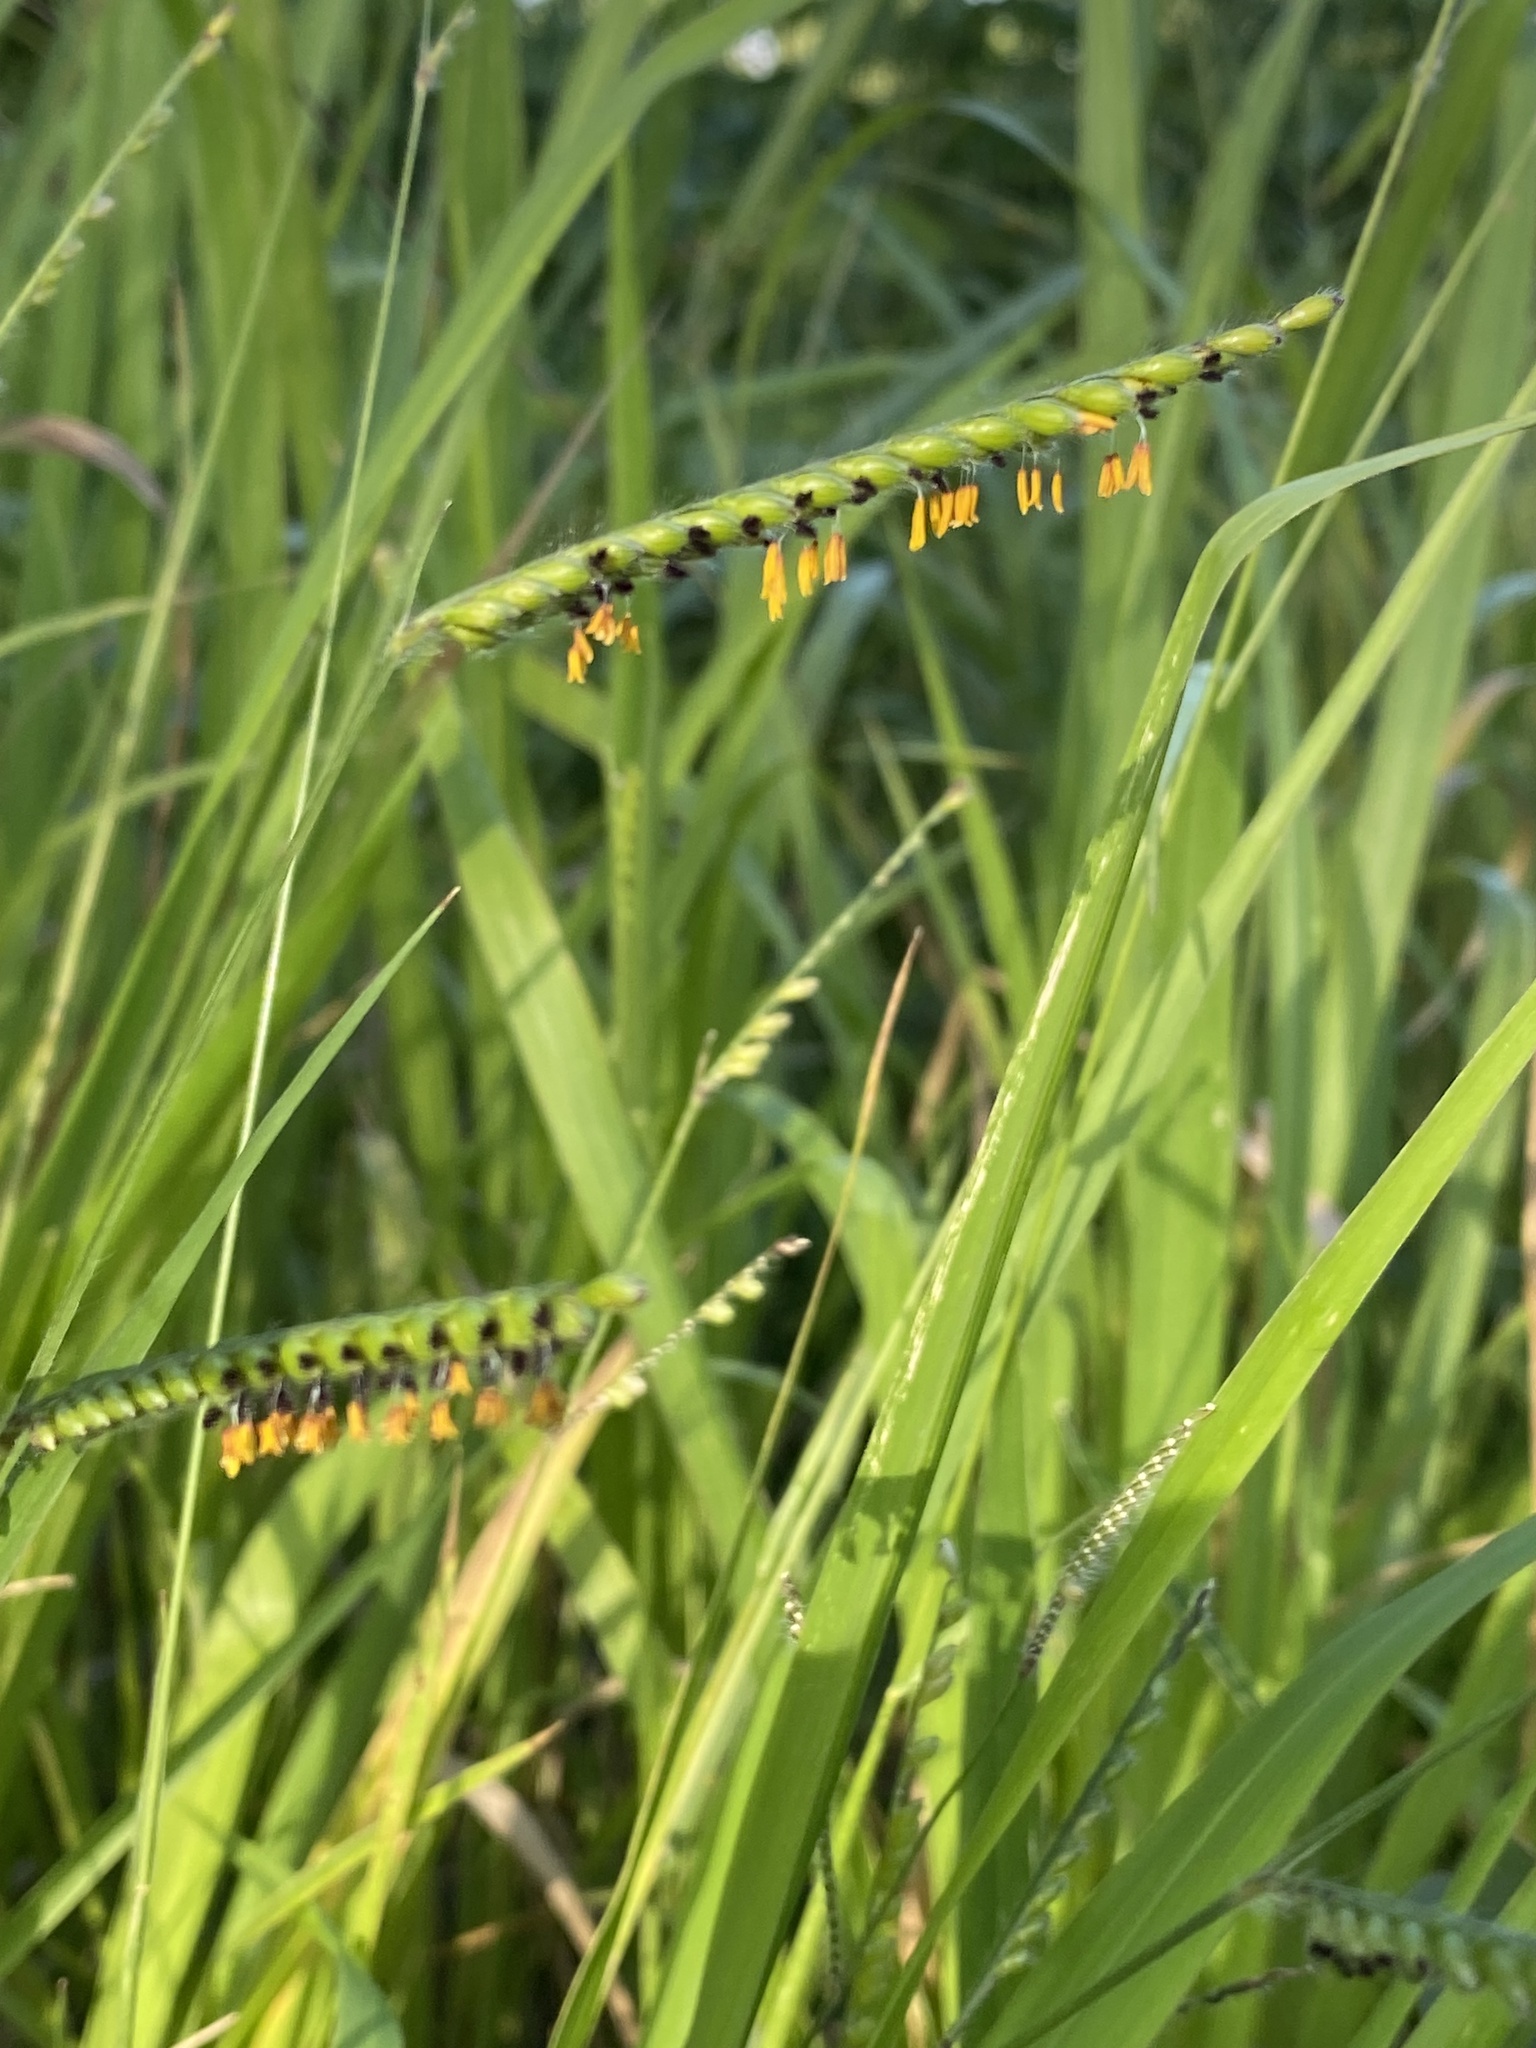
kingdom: Plantae
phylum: Tracheophyta
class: Liliopsida
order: Poales
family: Poaceae
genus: Urochloa
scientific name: Urochloa eminii
